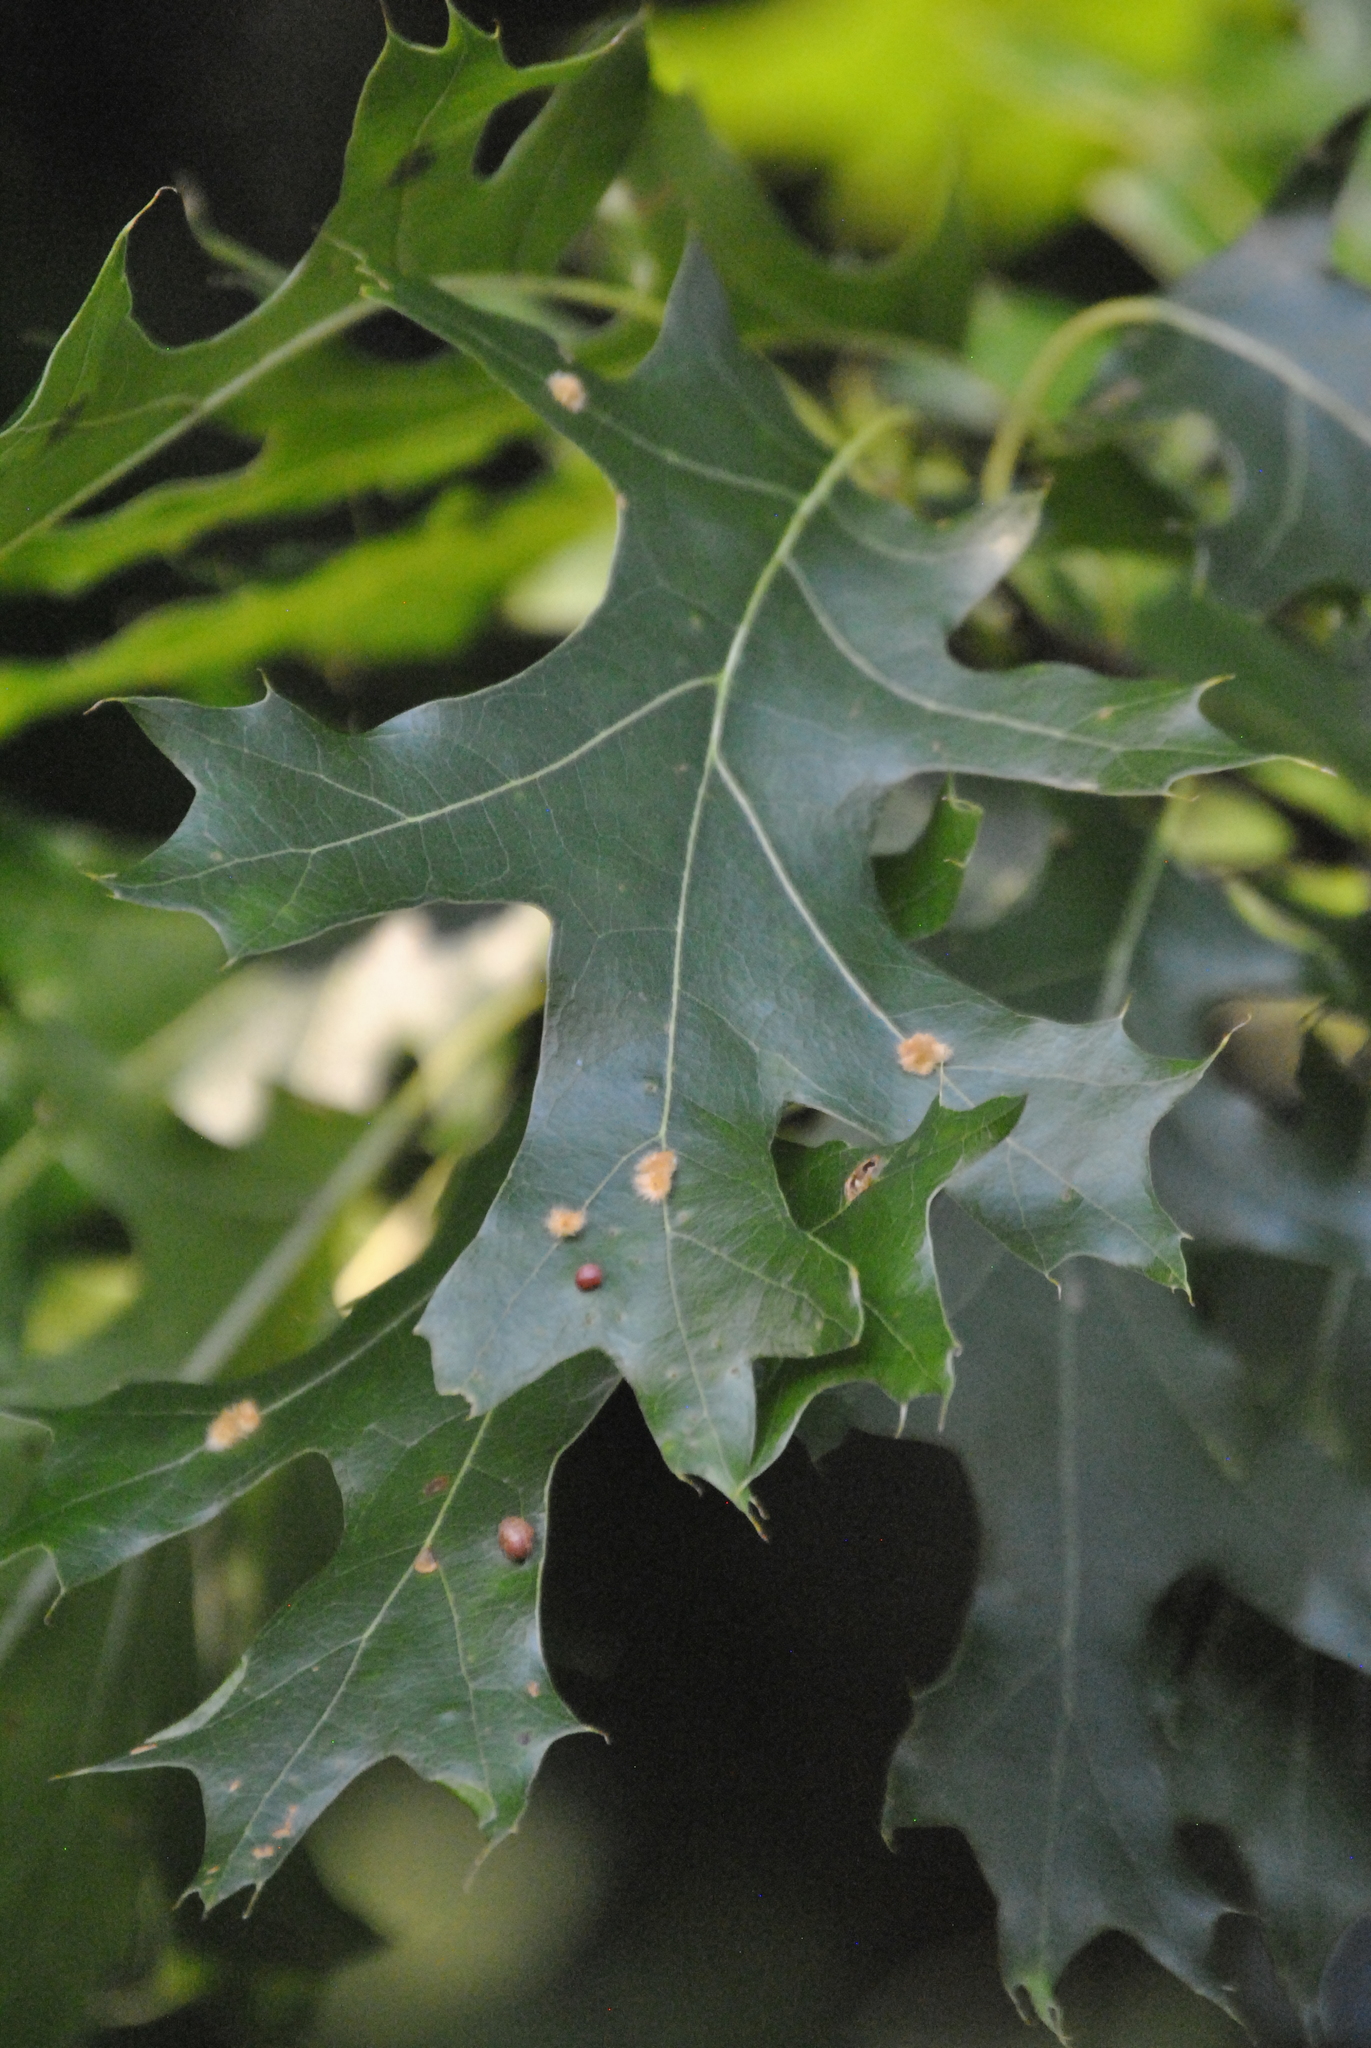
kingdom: Animalia
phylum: Arthropoda
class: Insecta
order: Diptera
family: Cecidomyiidae
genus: Polystepha
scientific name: Polystepha pilulae
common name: Oak leaf gall midge
